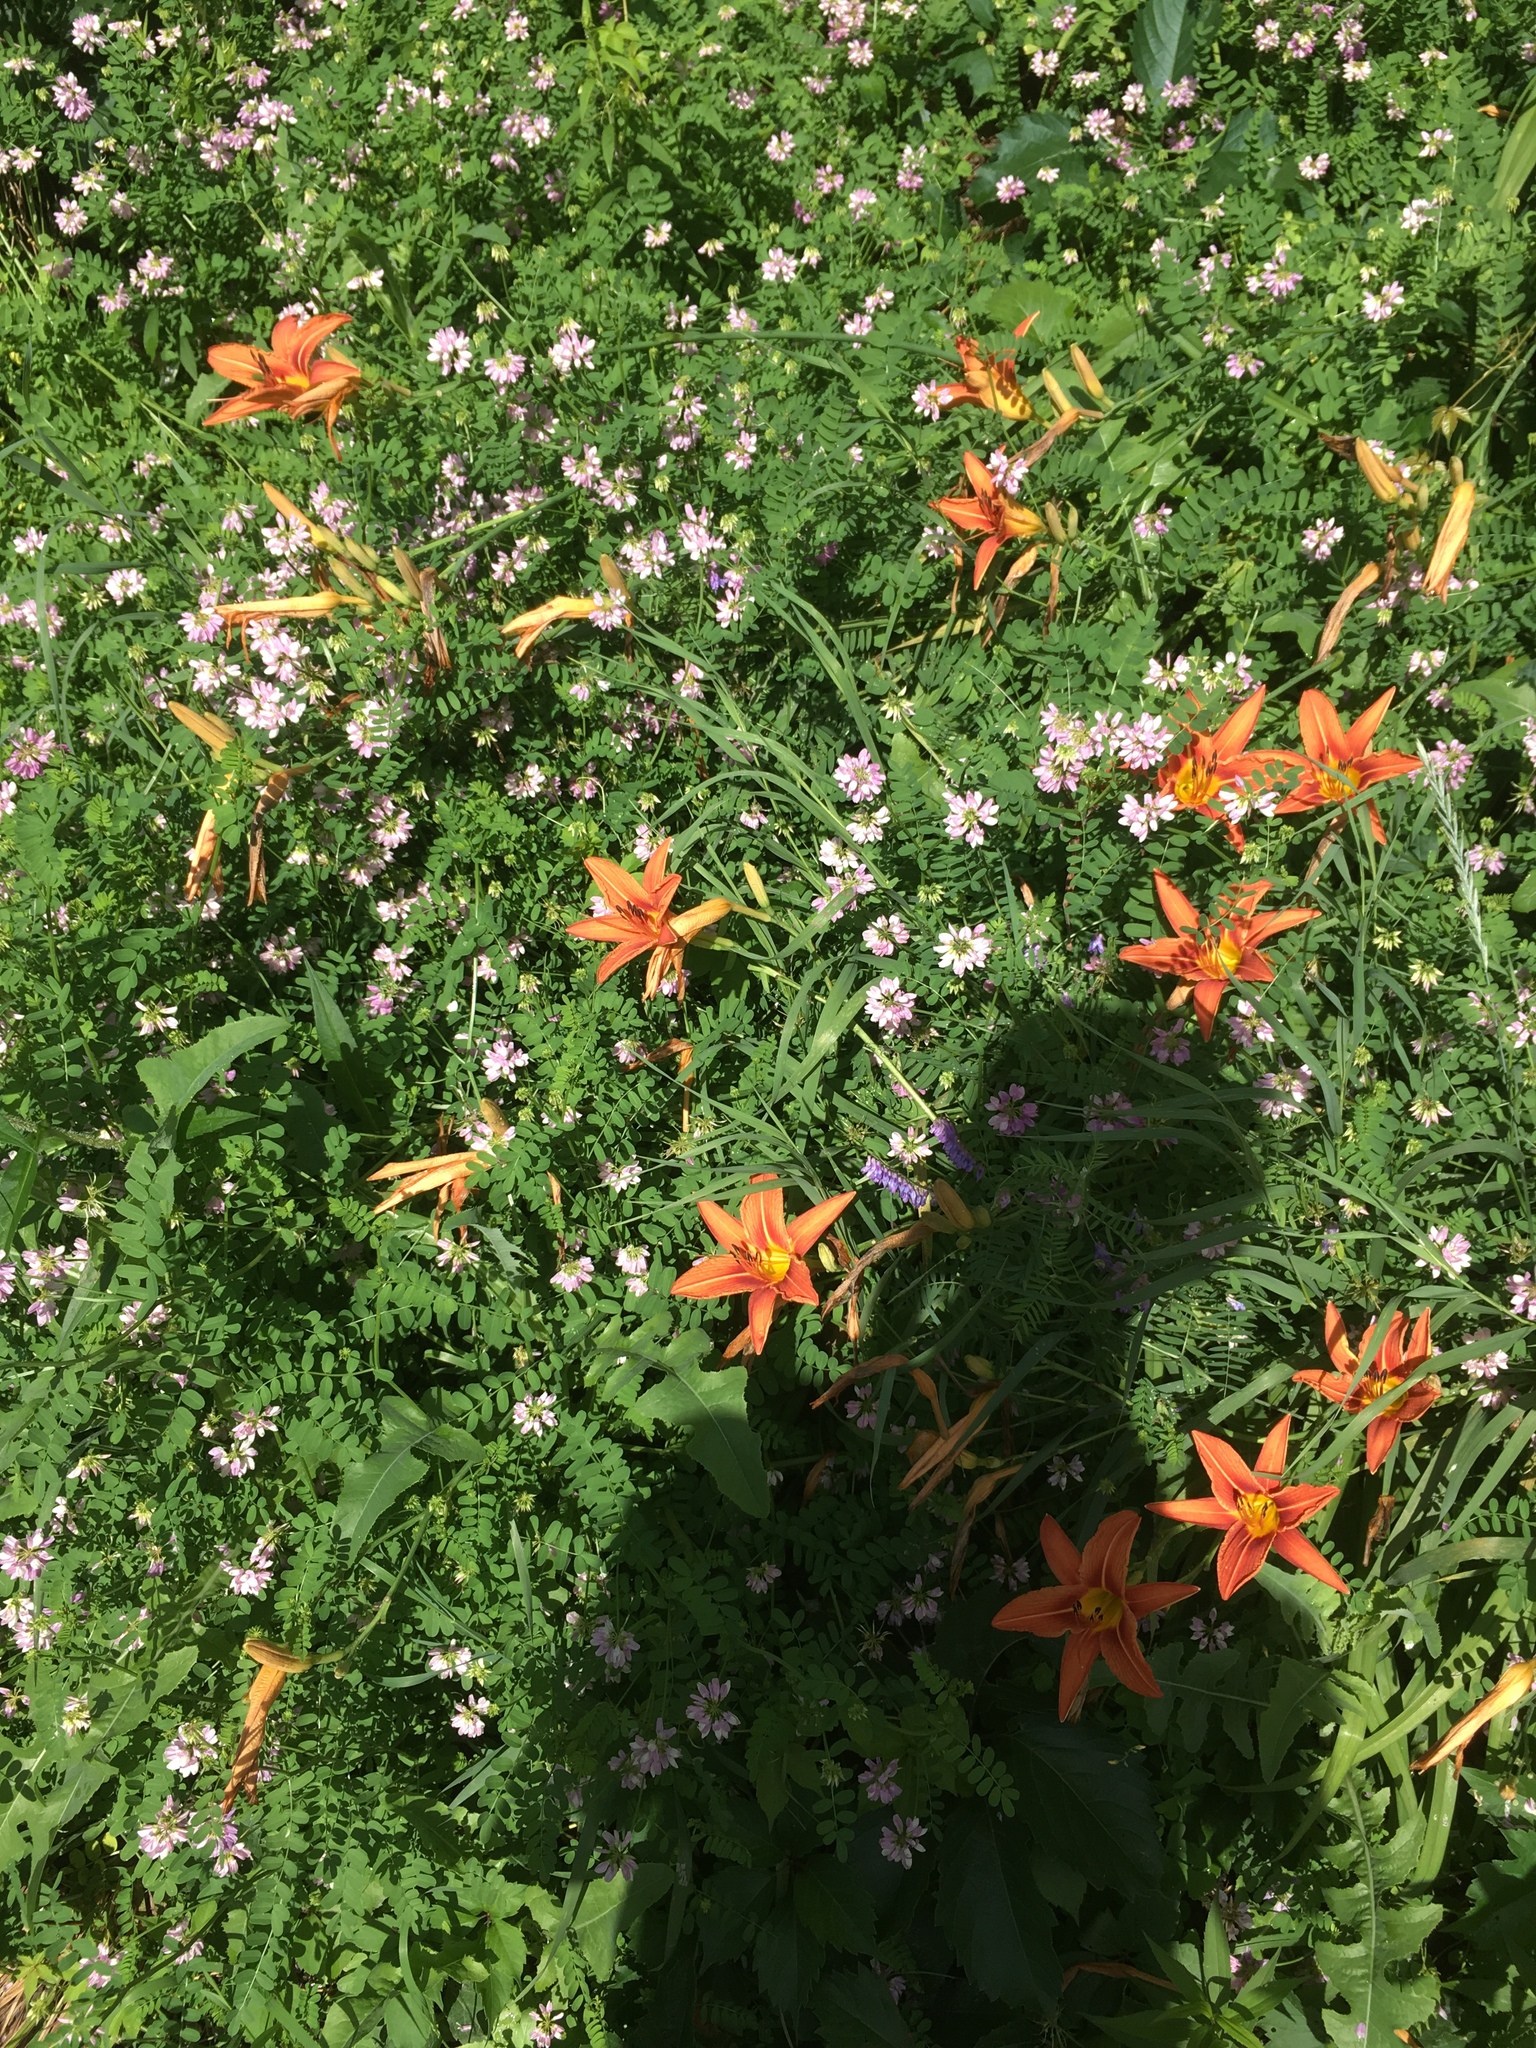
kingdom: Plantae
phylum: Tracheophyta
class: Liliopsida
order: Asparagales
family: Asphodelaceae
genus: Hemerocallis
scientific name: Hemerocallis fulva
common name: Orange day-lily
